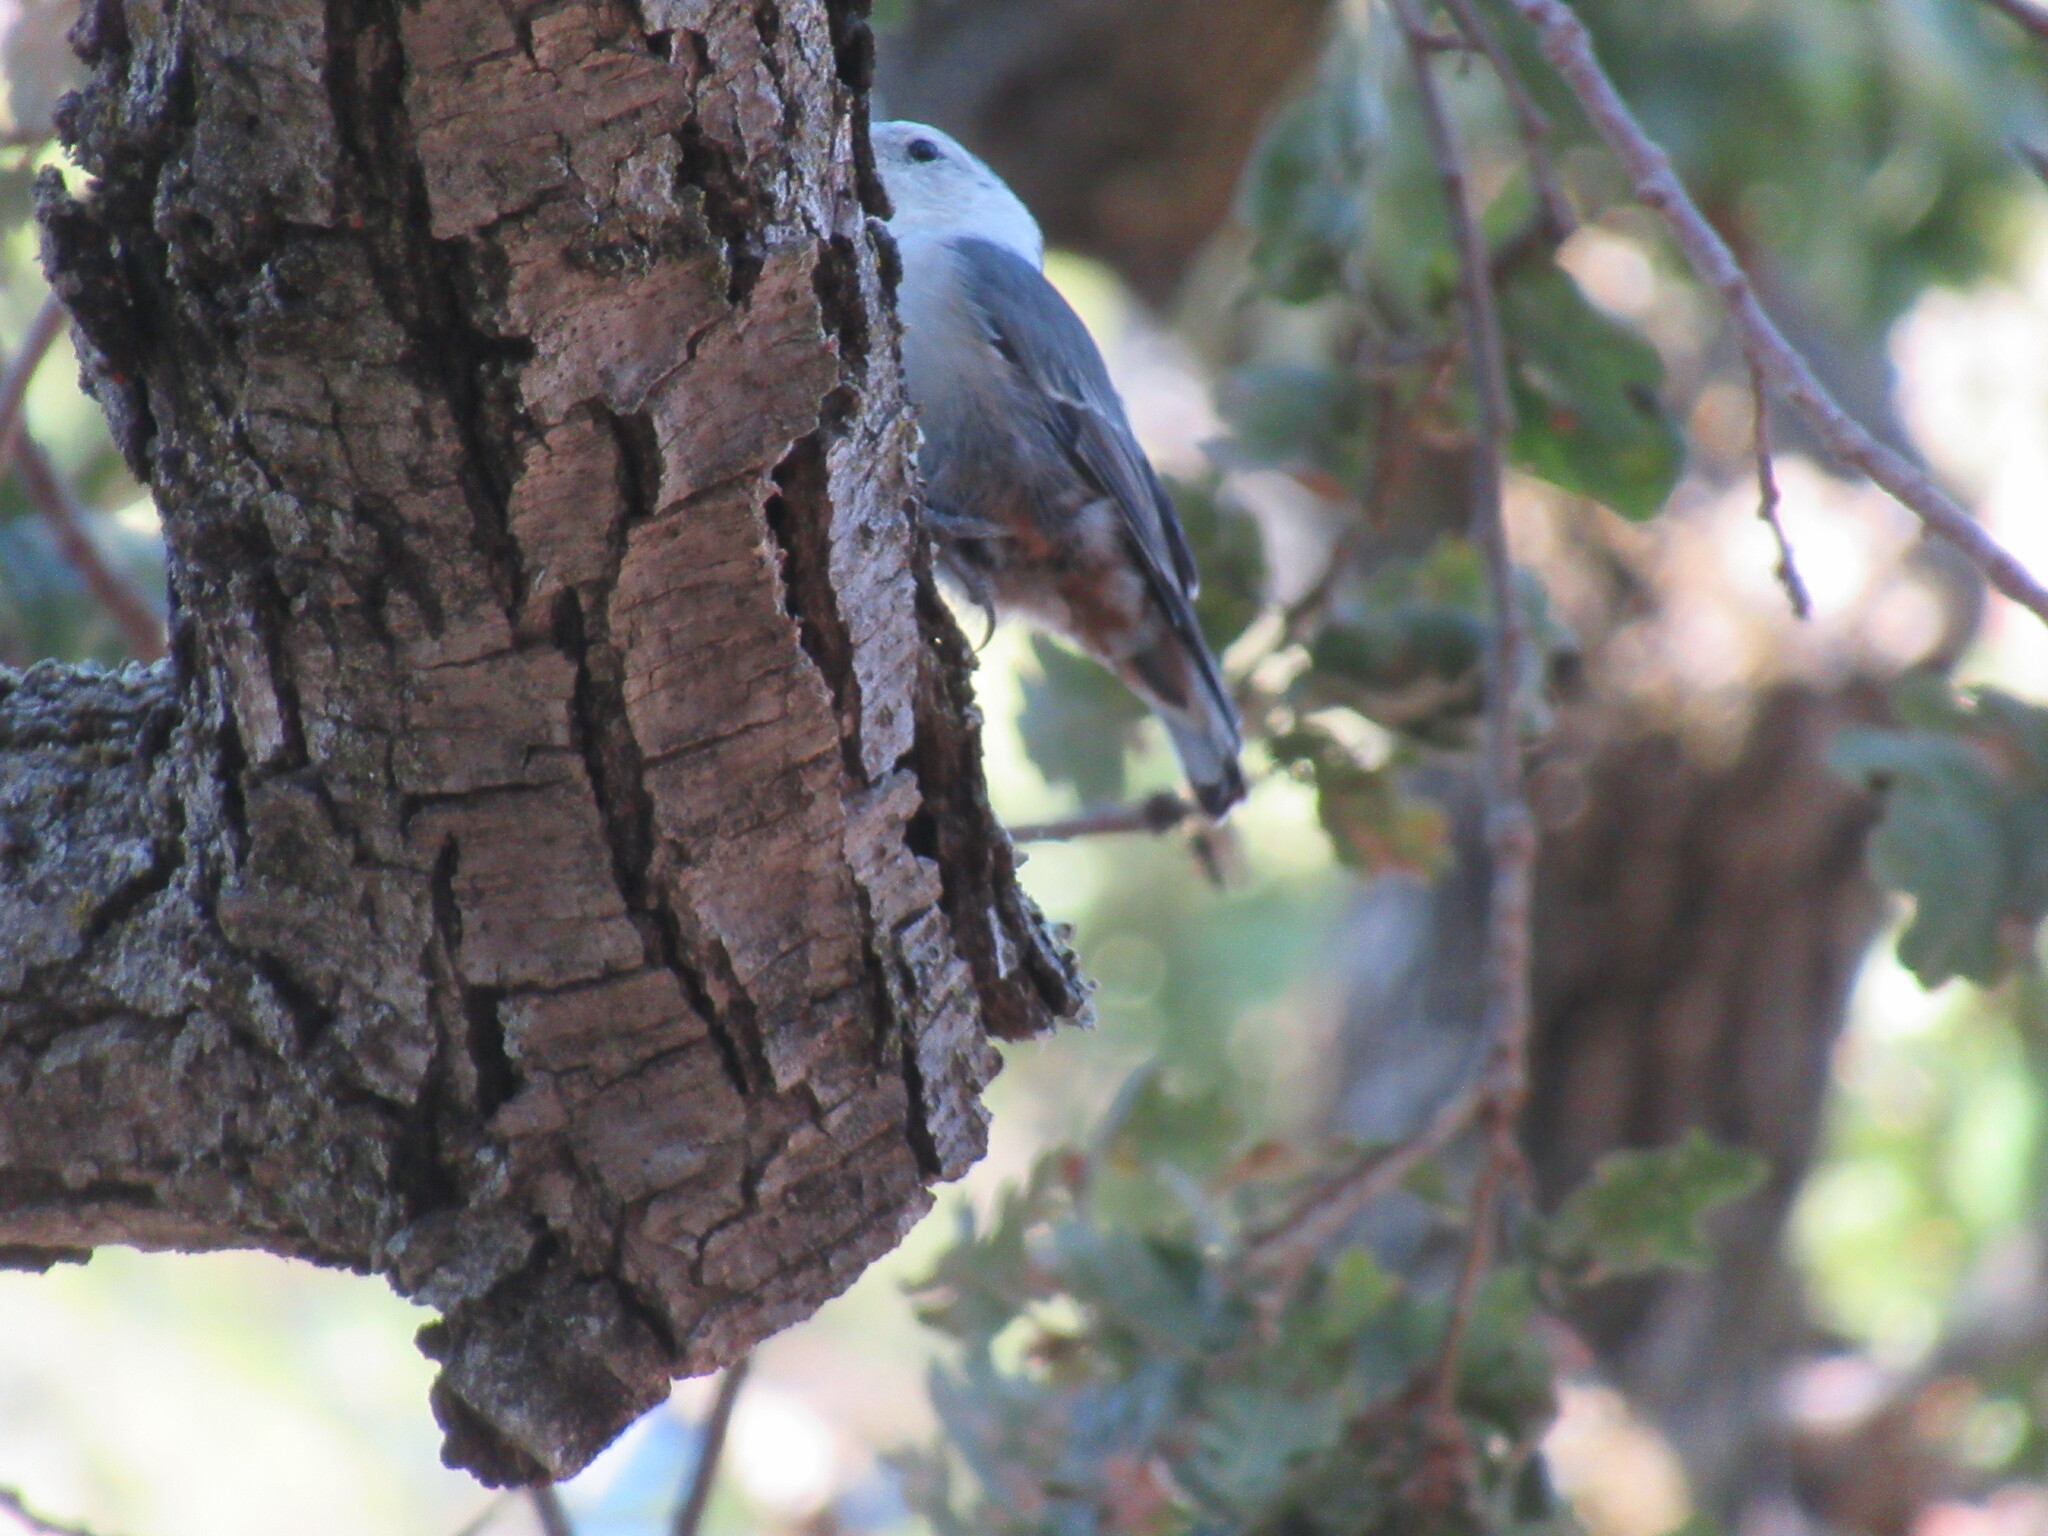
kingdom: Animalia
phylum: Chordata
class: Aves
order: Passeriformes
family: Sittidae
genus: Sitta
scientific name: Sitta carolinensis
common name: White-breasted nuthatch
